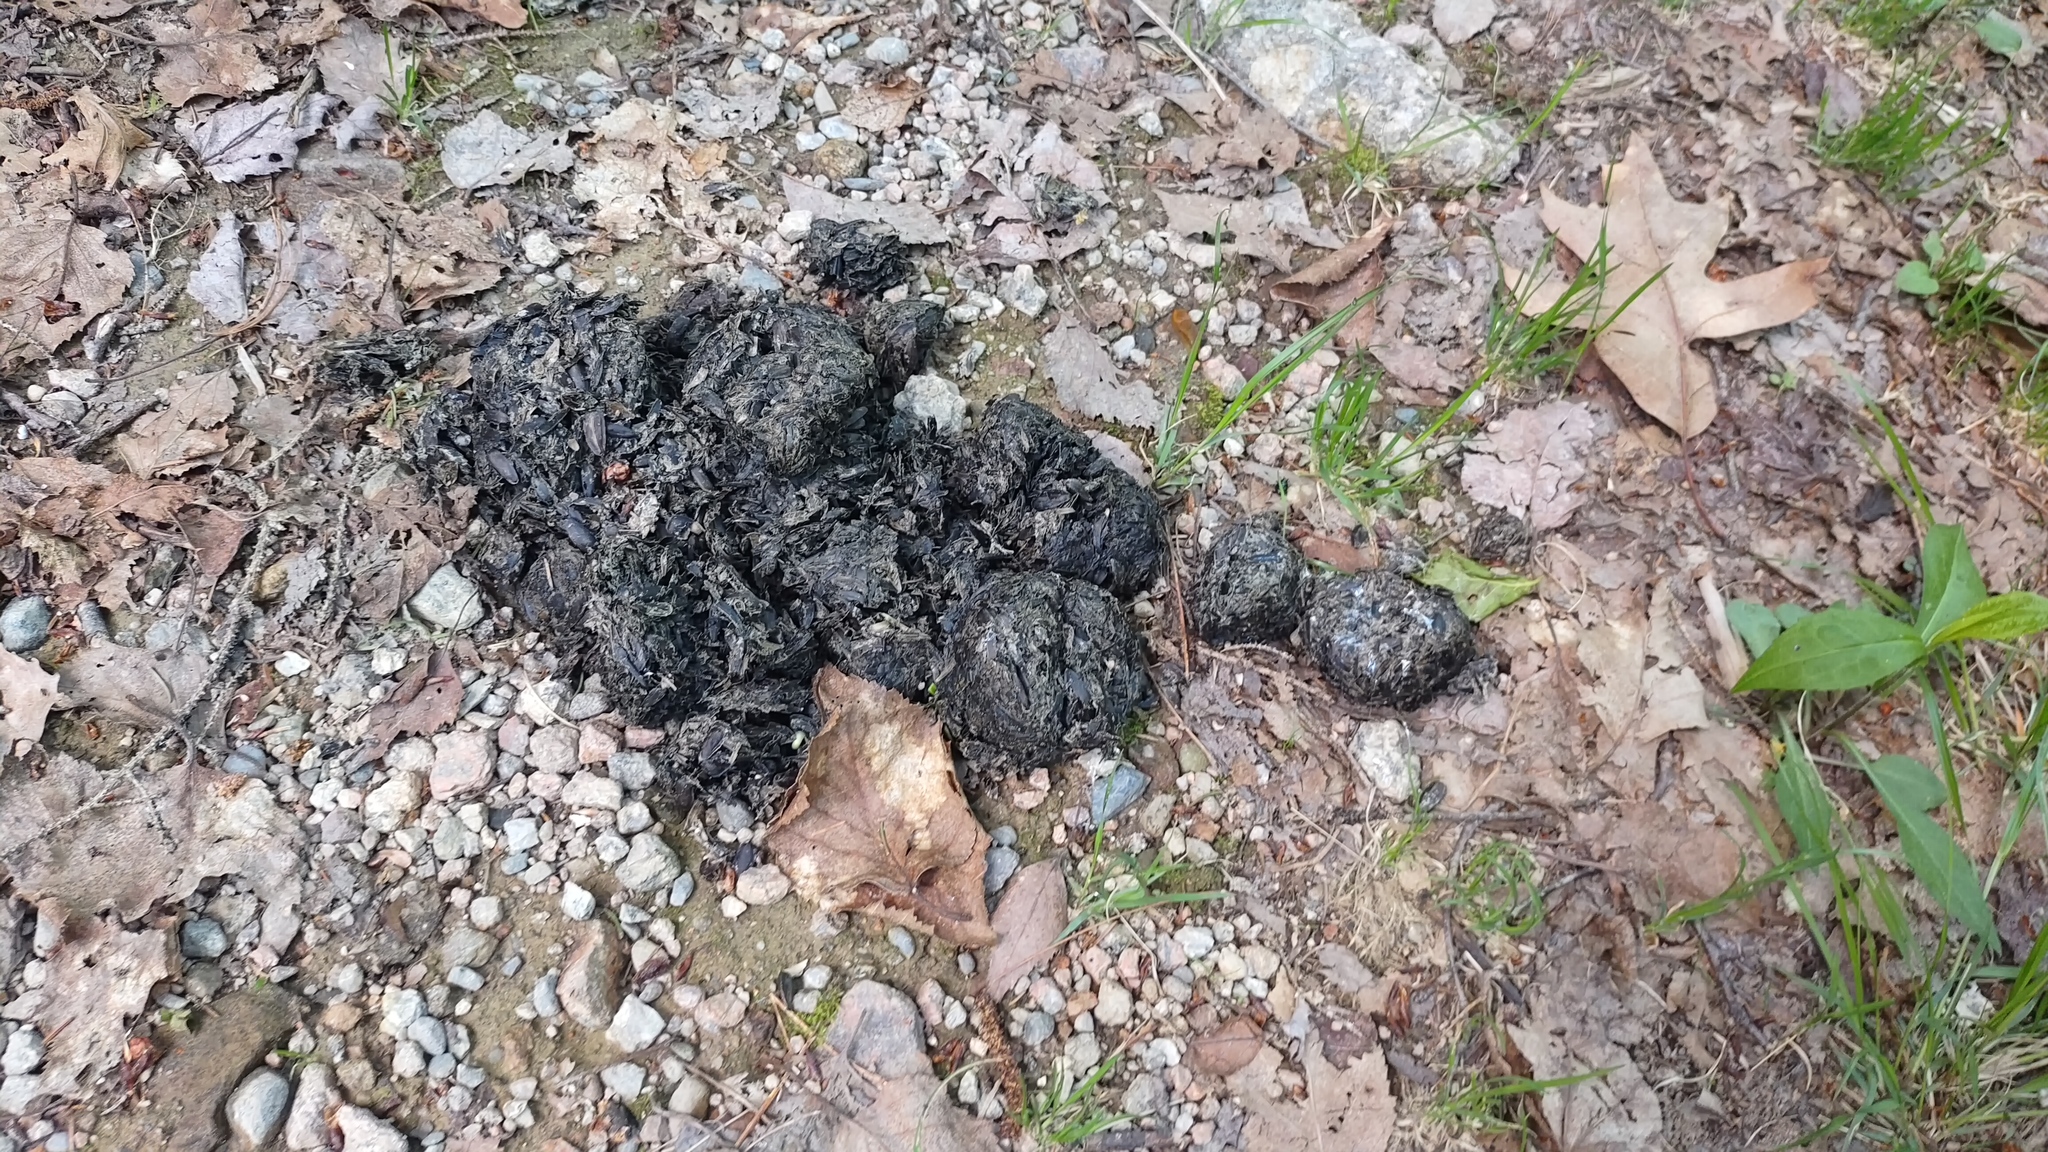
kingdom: Animalia
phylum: Chordata
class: Mammalia
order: Carnivora
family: Ursidae
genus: Ursus
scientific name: Ursus americanus
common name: American black bear
